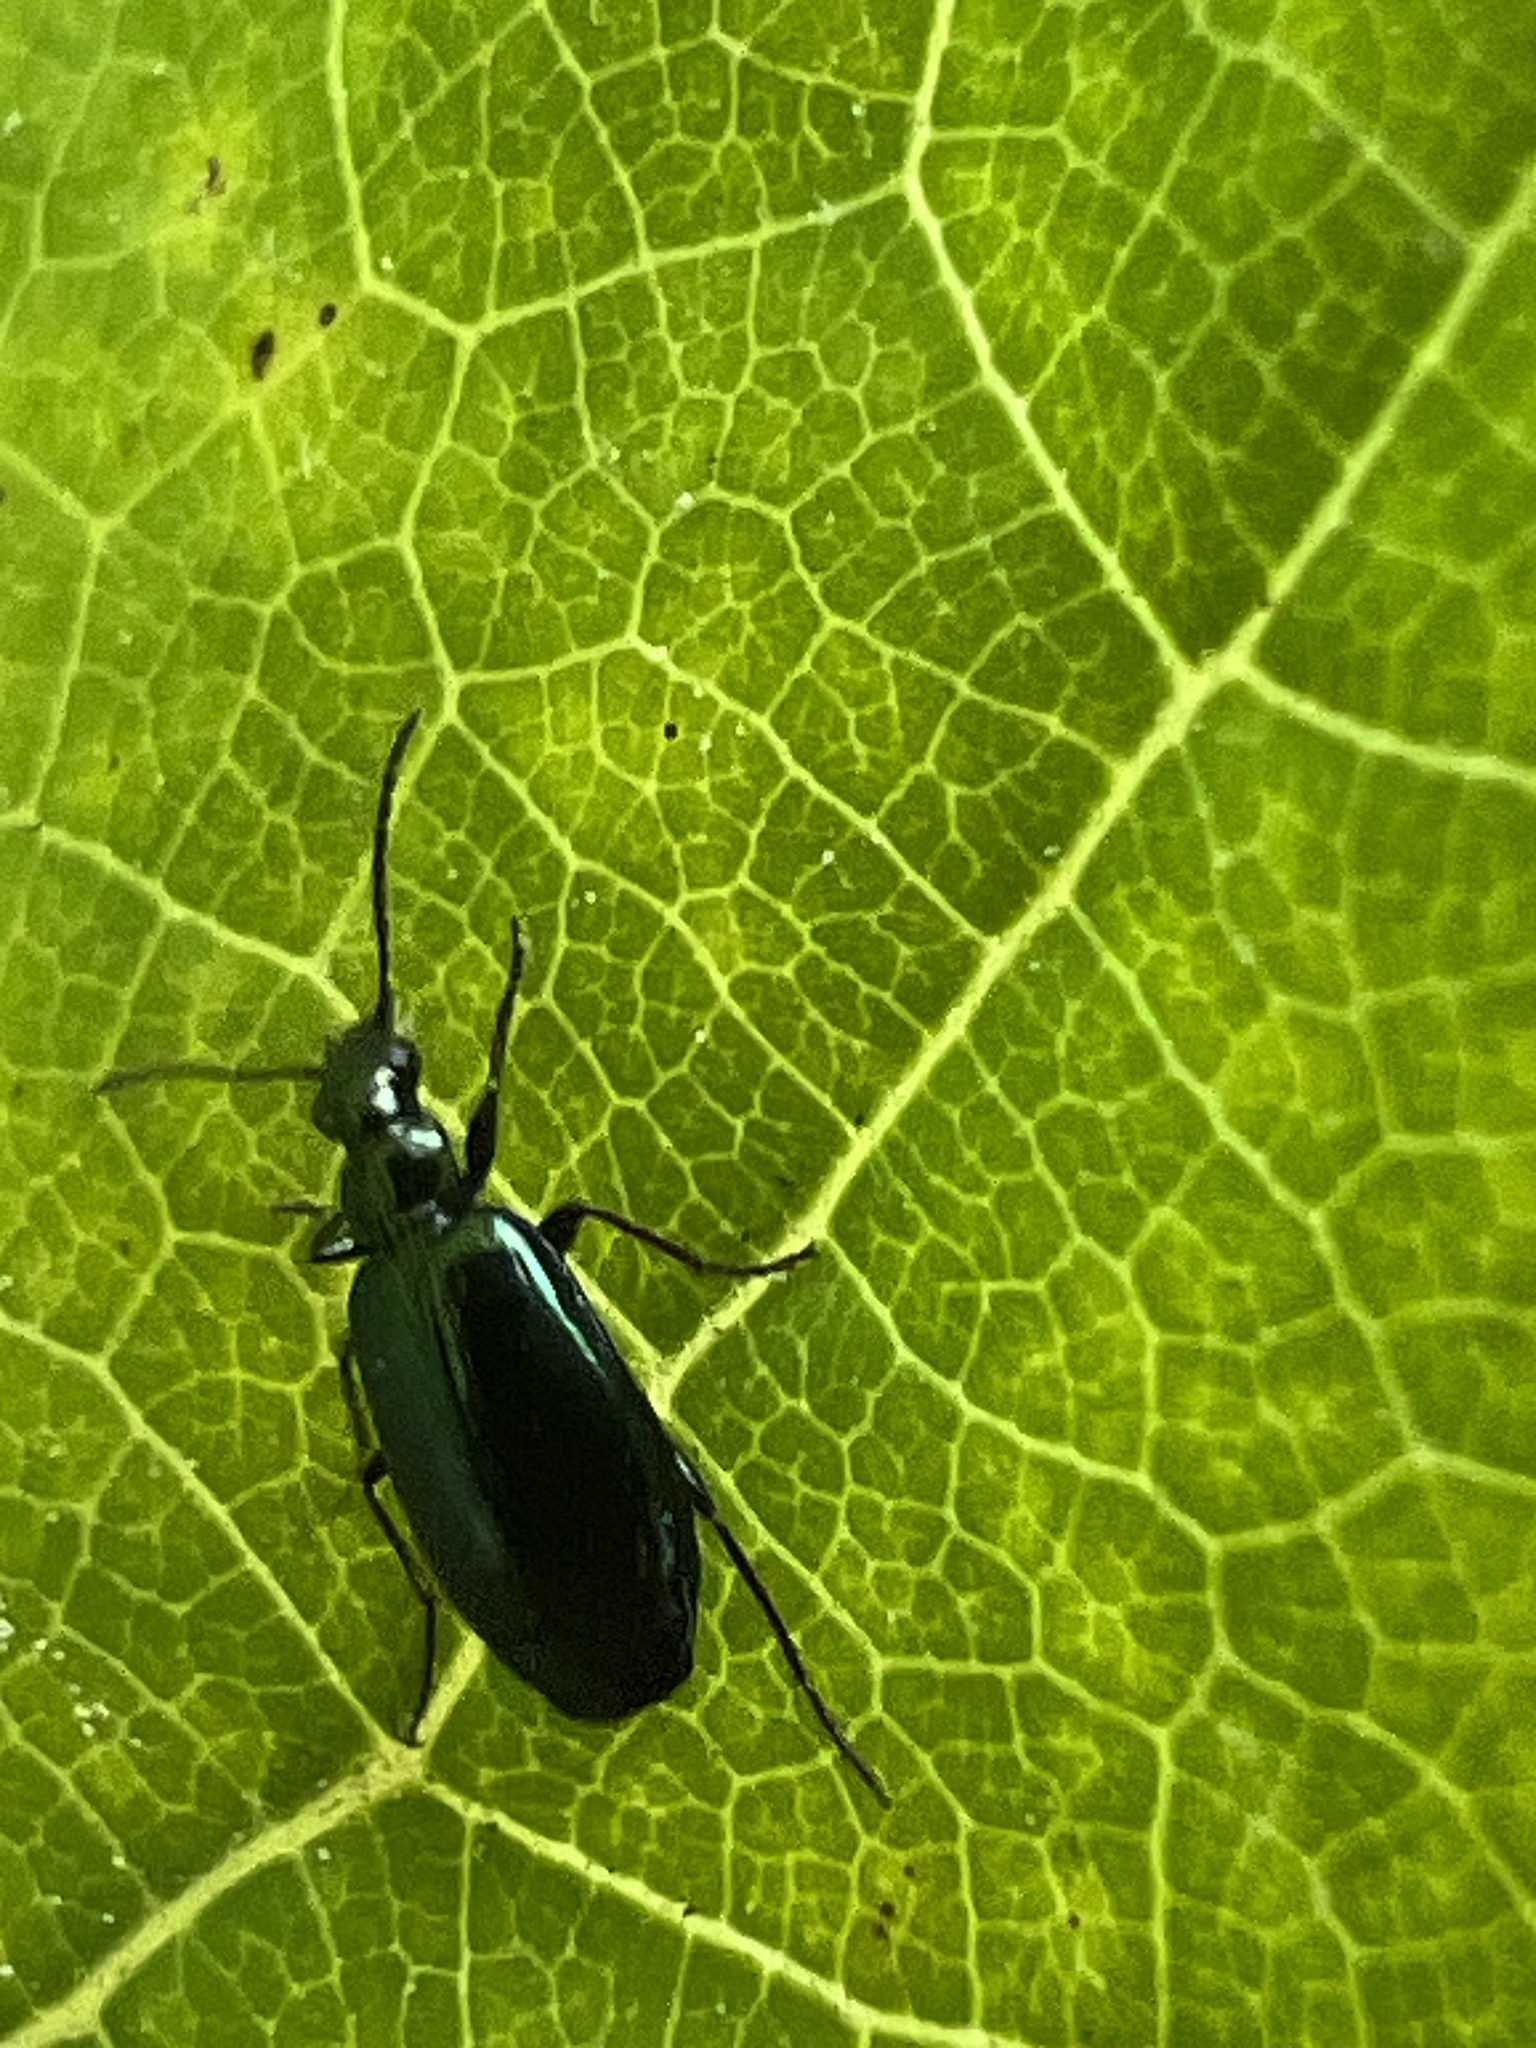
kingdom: Animalia
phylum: Arthropoda
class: Insecta
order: Coleoptera
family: Carabidae
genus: Lebia
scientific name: Lebia viridis
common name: Flower lebia beetle
